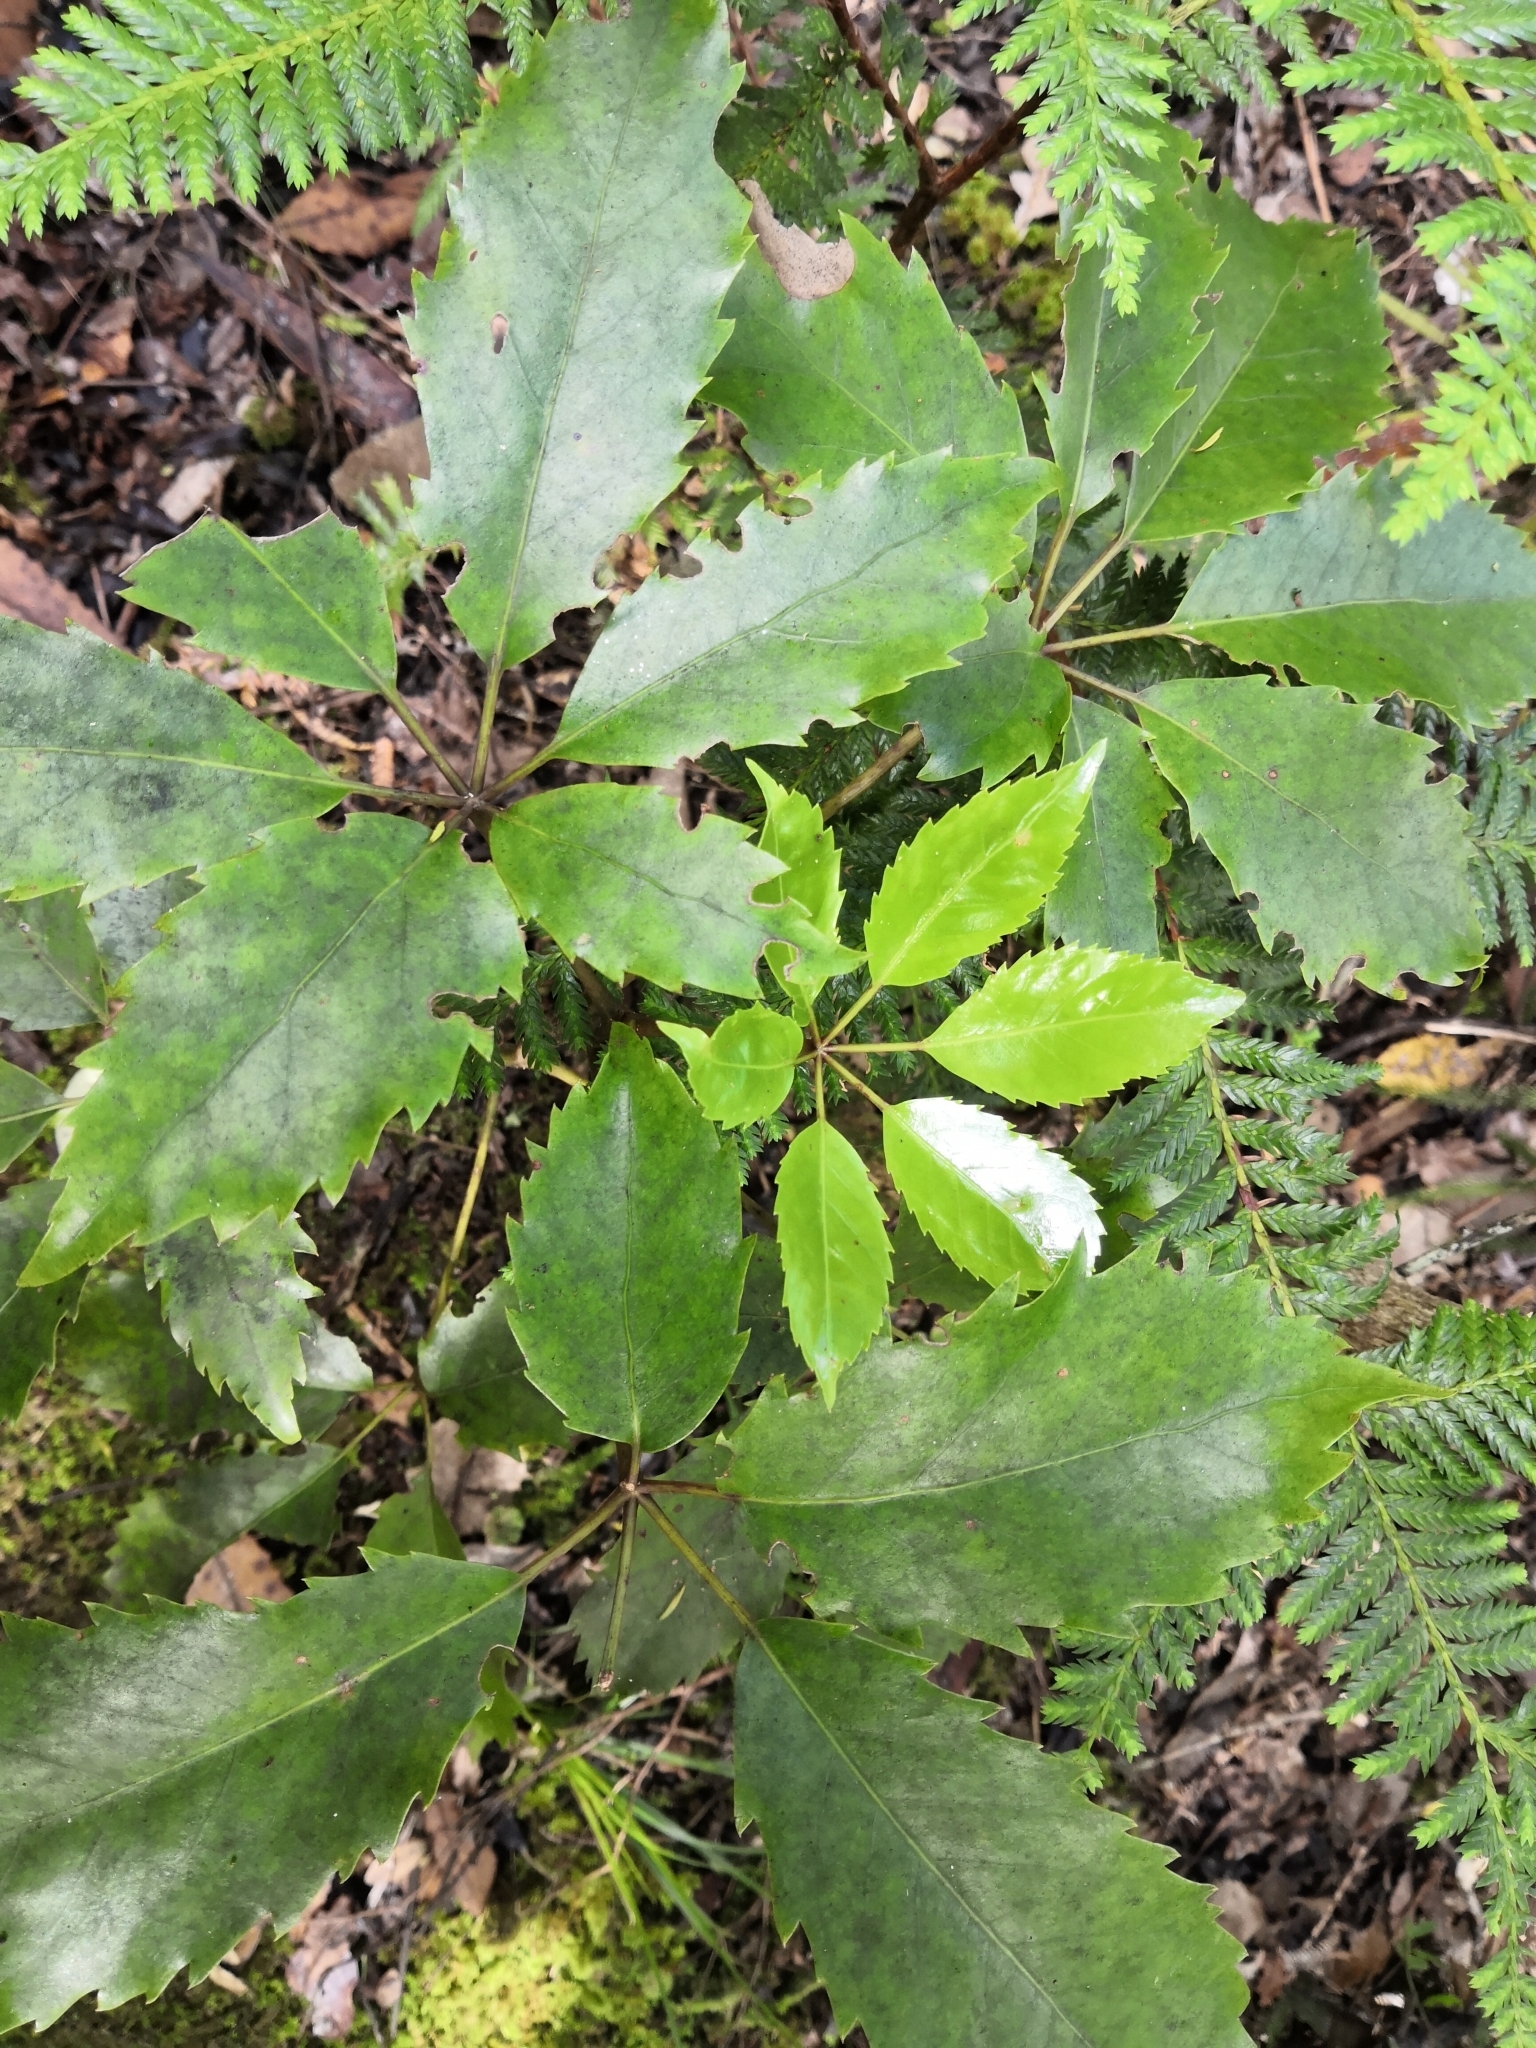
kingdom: Plantae
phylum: Tracheophyta
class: Magnoliopsida
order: Apiales
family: Araliaceae
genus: Neopanax
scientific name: Neopanax arboreus
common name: Five-fingers
